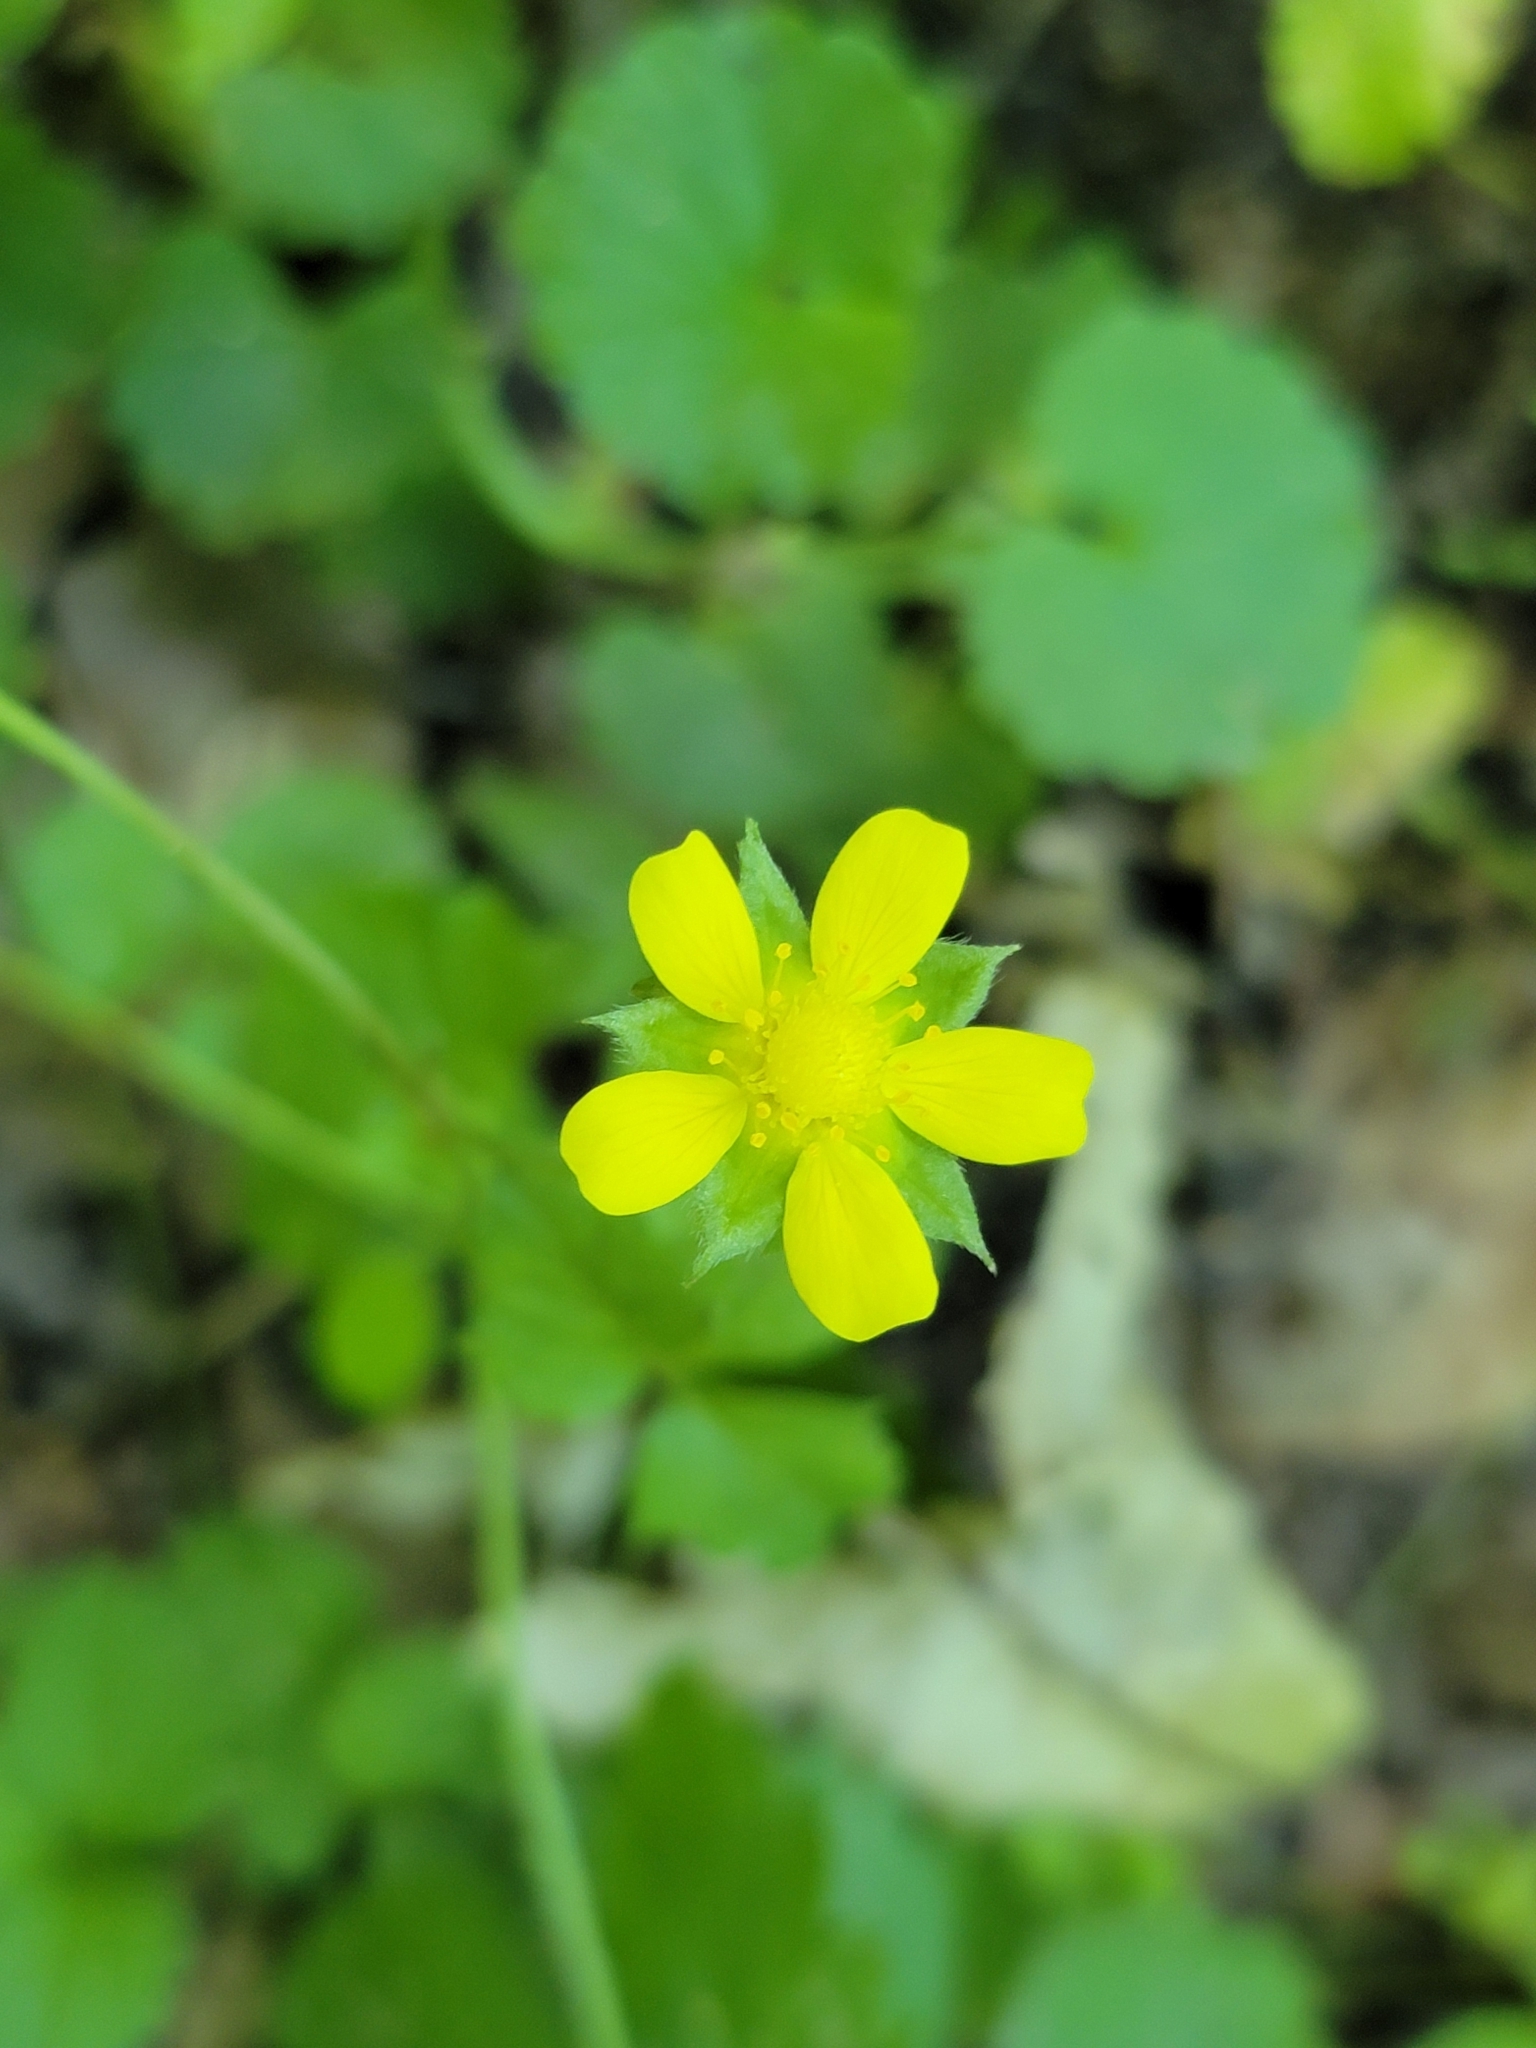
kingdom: Plantae
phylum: Tracheophyta
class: Magnoliopsida
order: Rosales
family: Rosaceae
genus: Potentilla
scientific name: Potentilla indica
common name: Yellow-flowered strawberry
